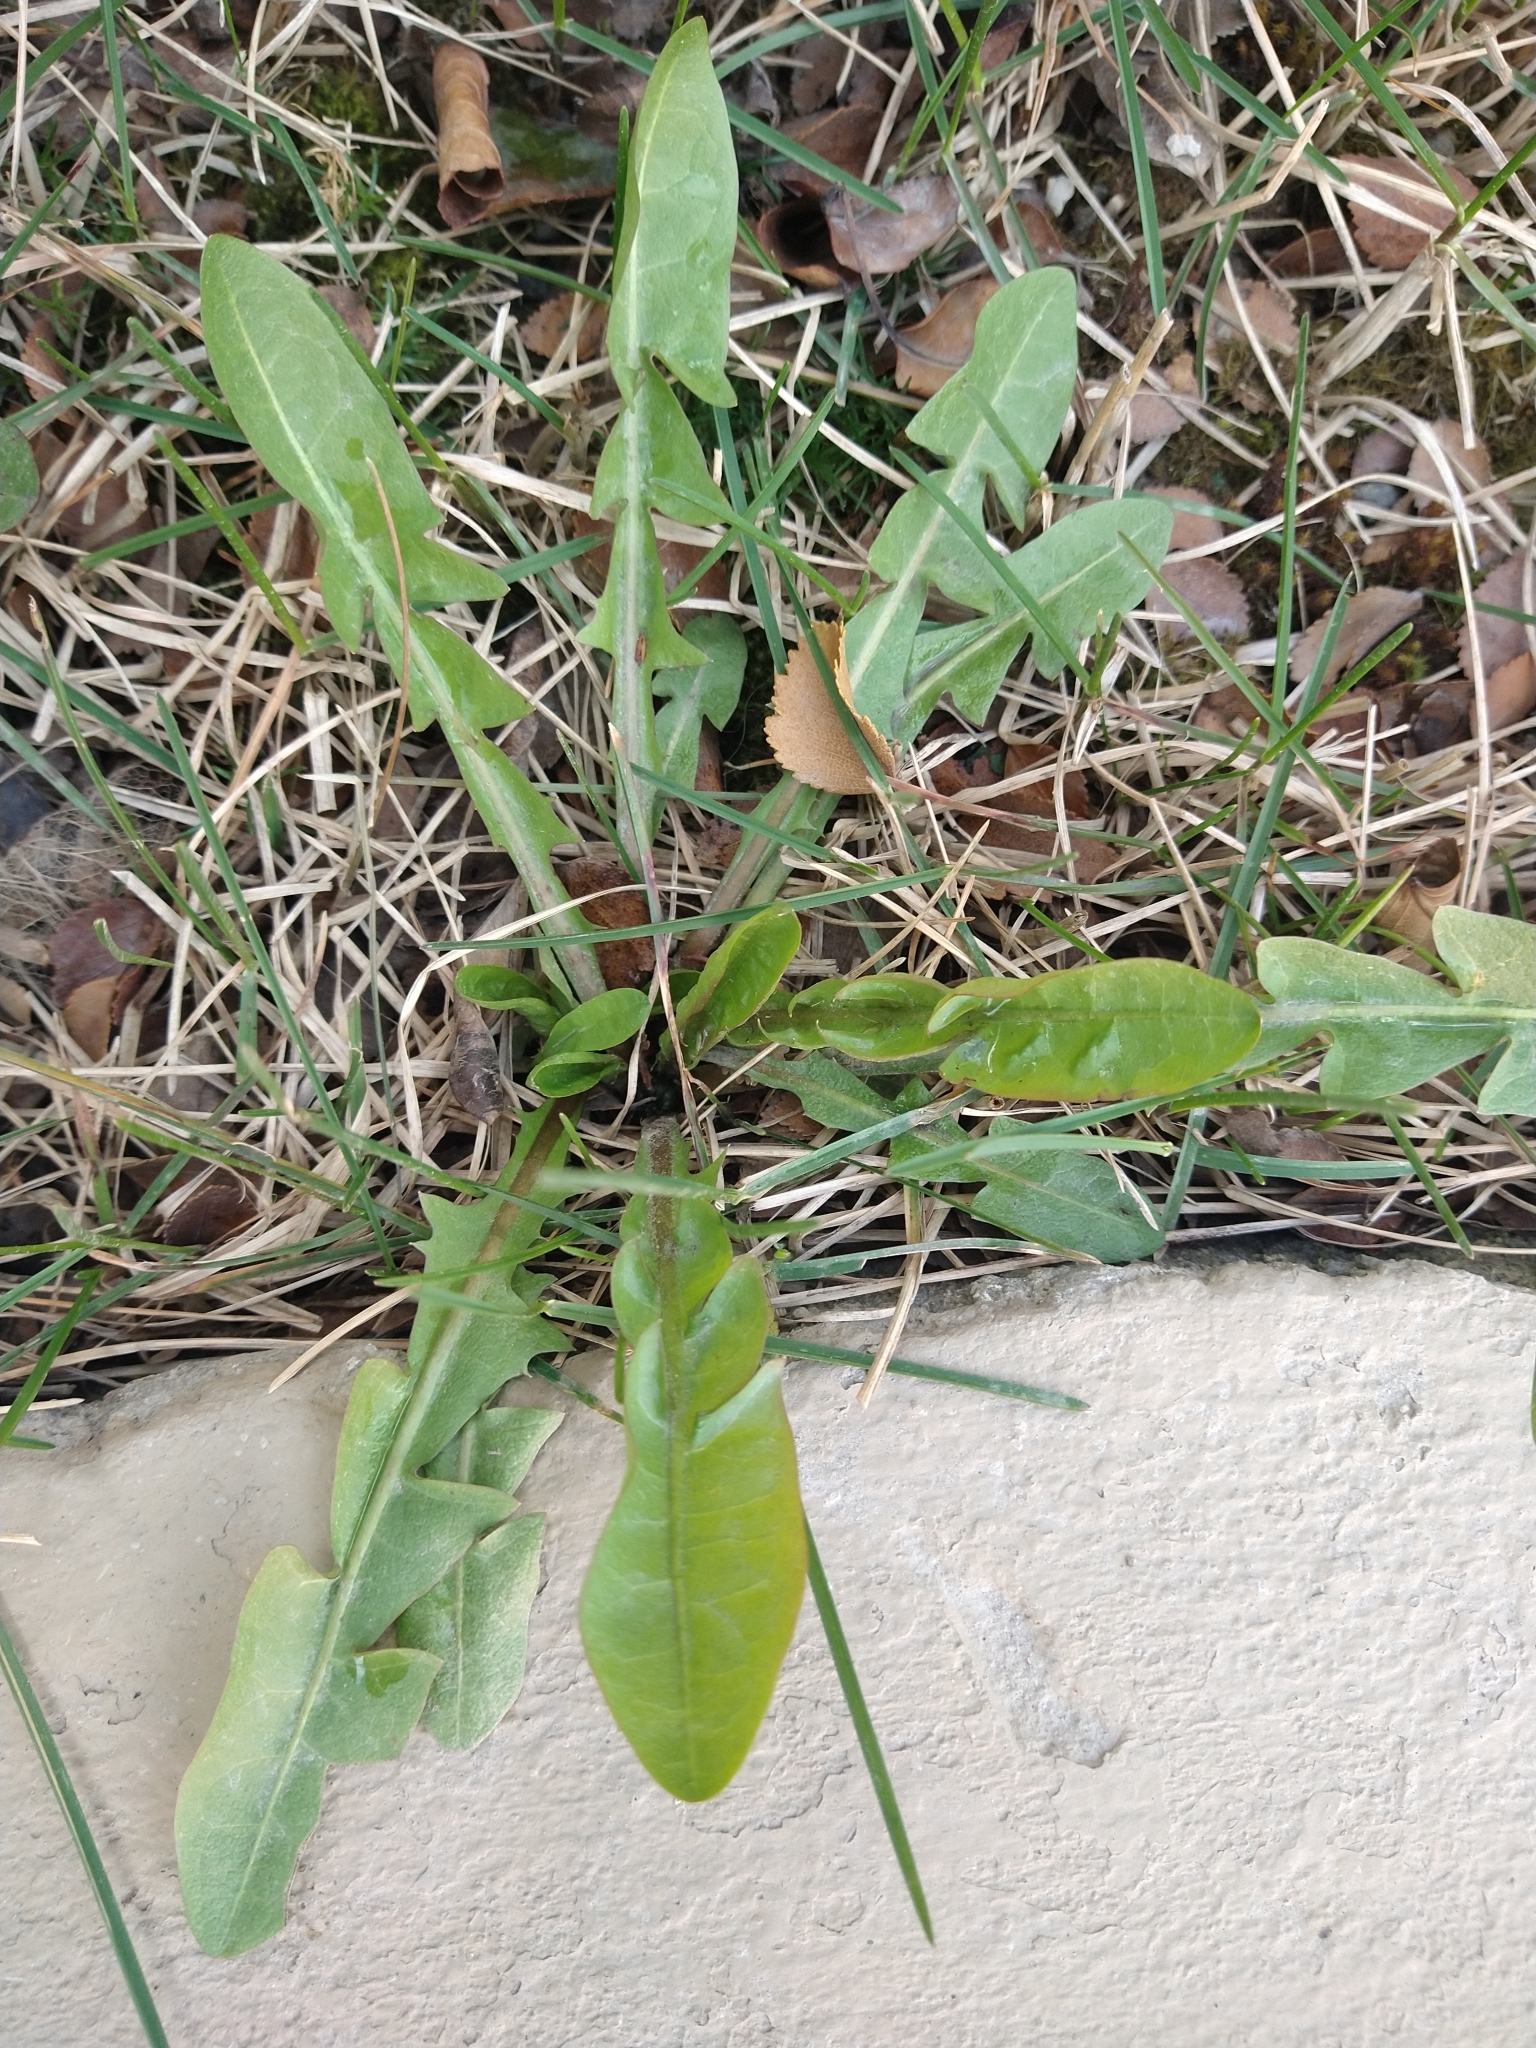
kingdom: Plantae
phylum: Tracheophyta
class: Magnoliopsida
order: Asterales
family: Asteraceae
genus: Taraxacum
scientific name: Taraxacum officinale
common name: Common dandelion
